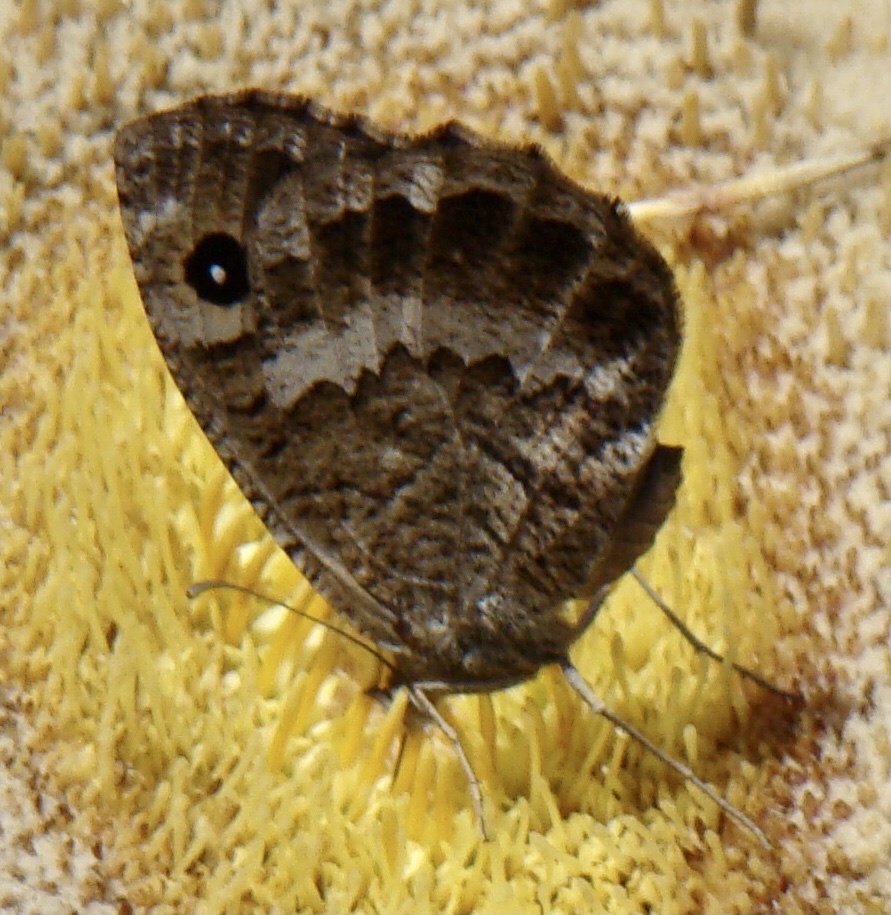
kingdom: Animalia
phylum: Arthropoda
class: Insecta
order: Lepidoptera
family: Nymphalidae
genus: Satyrus
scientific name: Satyrus ferula
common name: Great sooty satyr
